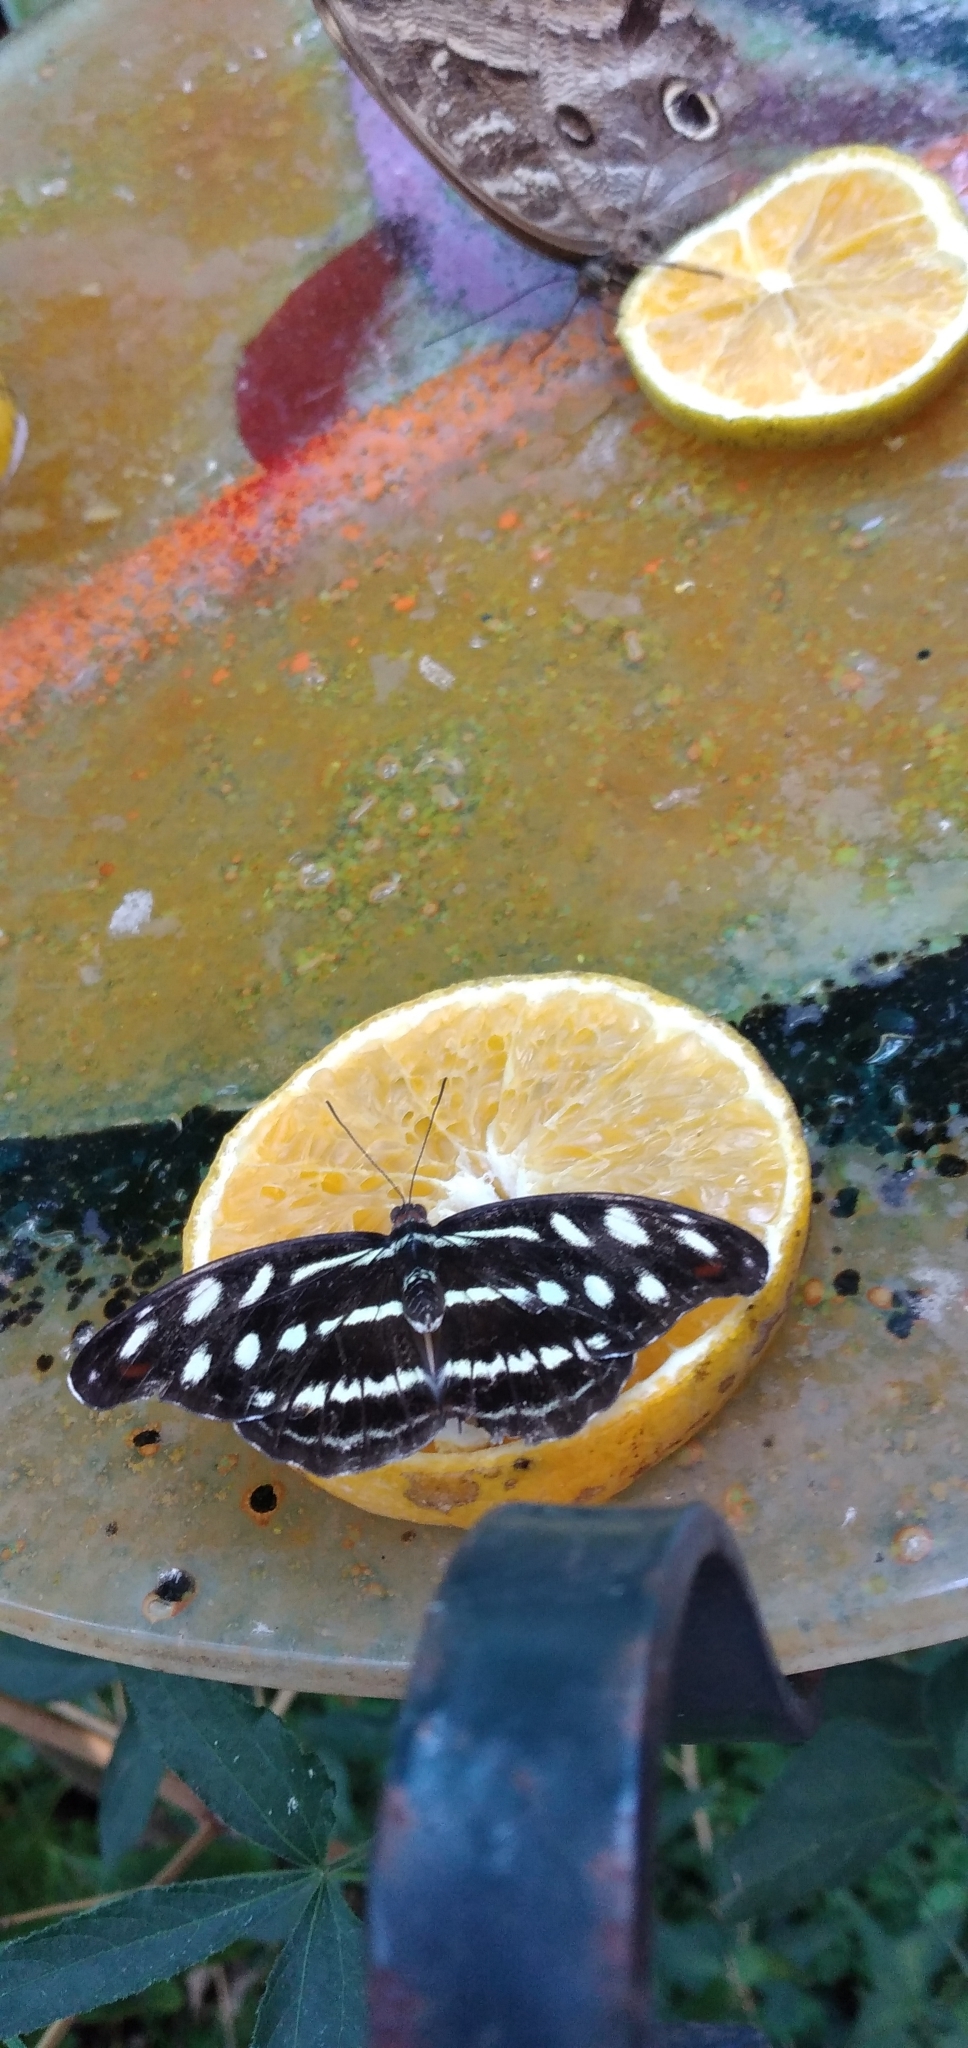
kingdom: Animalia
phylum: Arthropoda
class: Insecta
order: Lepidoptera
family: Nymphalidae
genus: Catonephele
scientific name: Catonephele acontius
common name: Unspotted firewing
